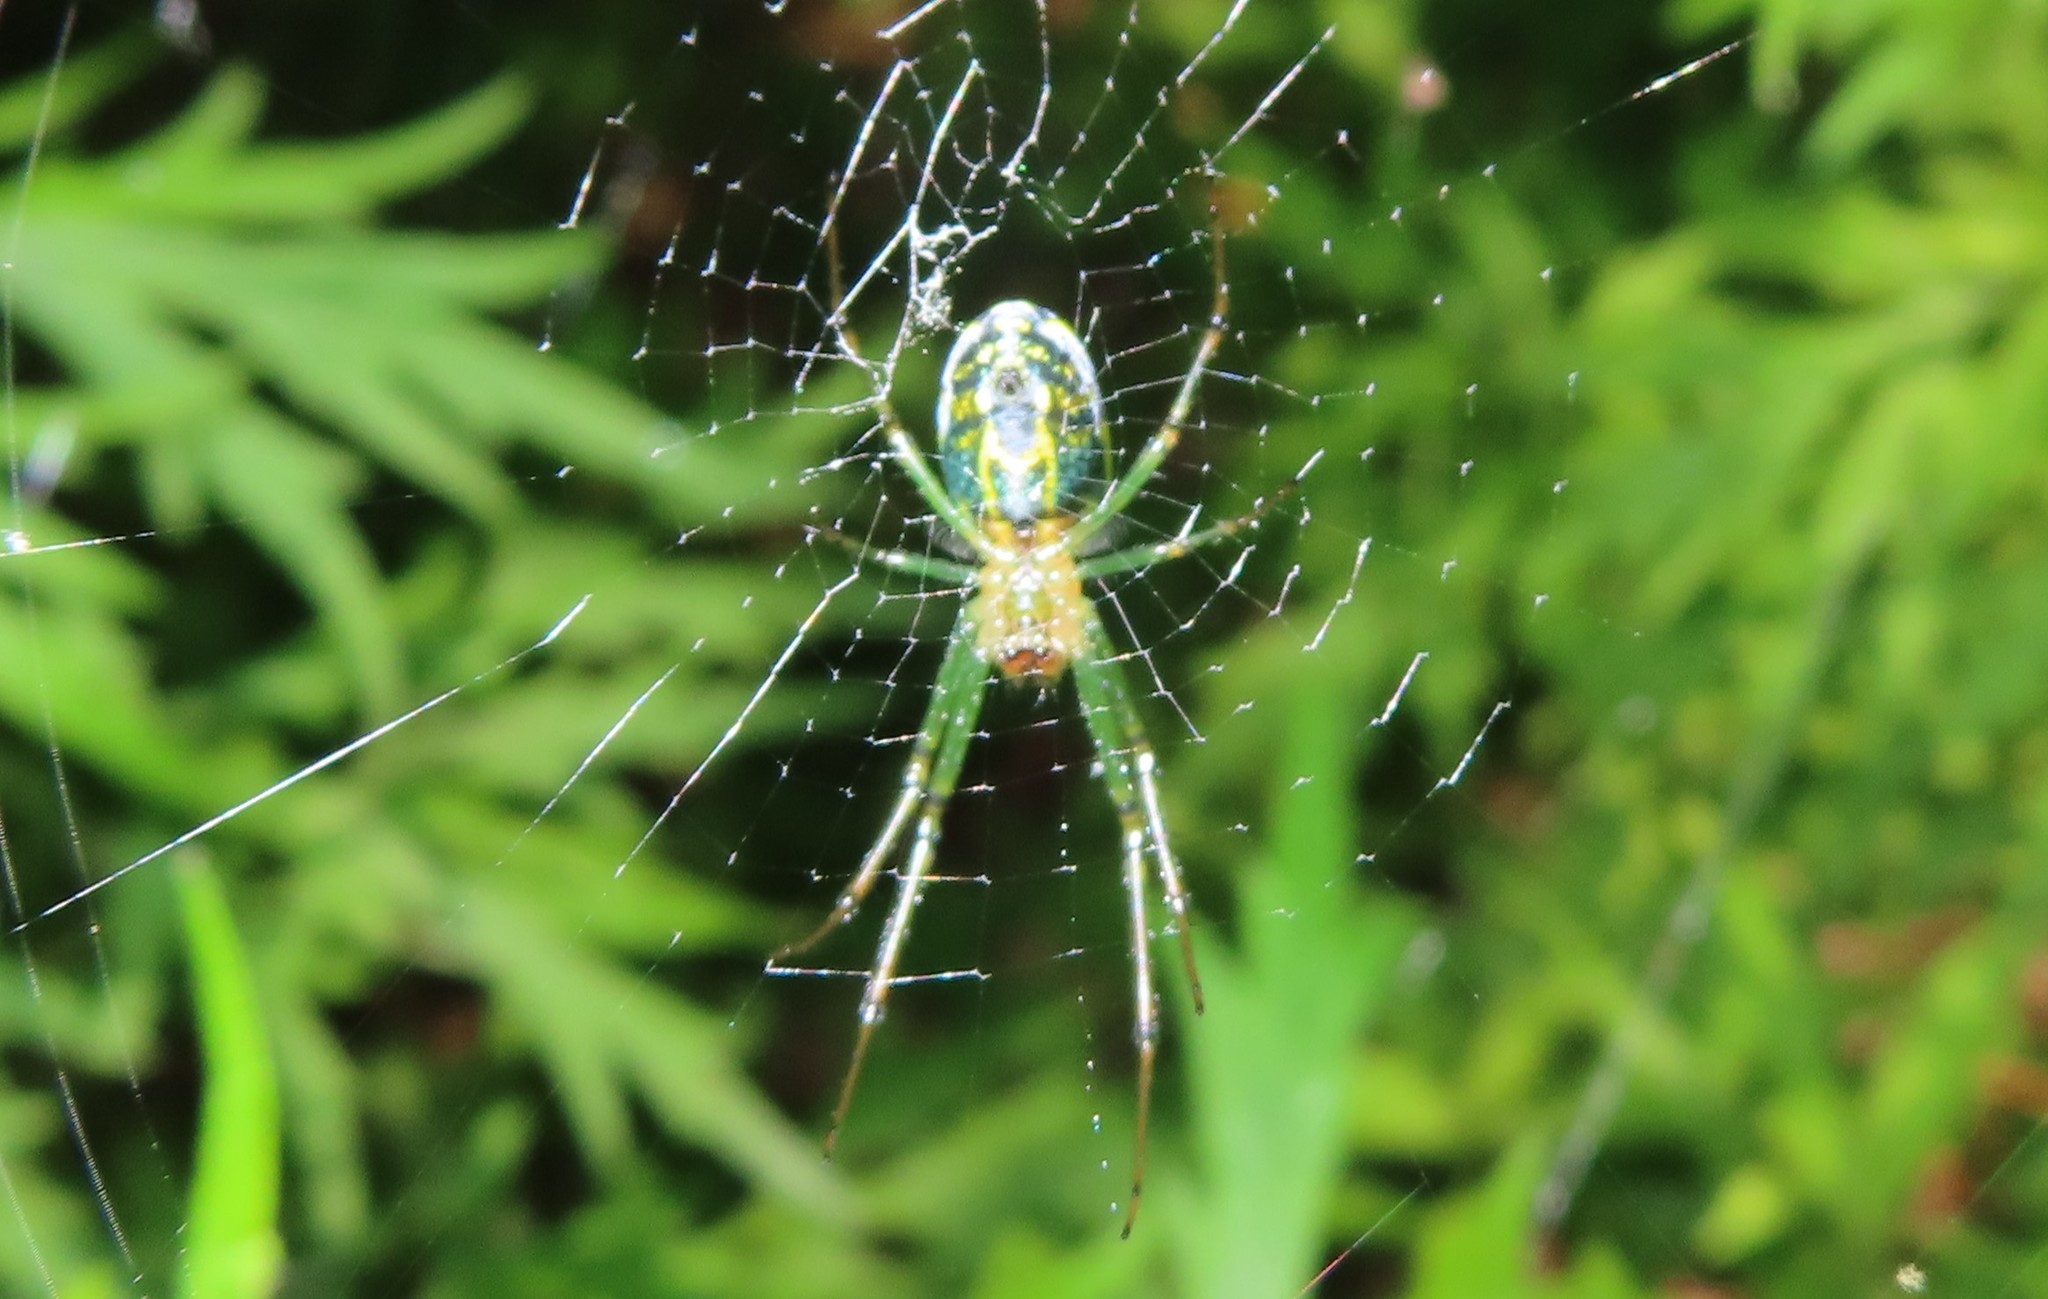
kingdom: Animalia
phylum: Arthropoda
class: Arachnida
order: Araneae
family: Tetragnathidae
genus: Leucauge
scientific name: Leucauge venusta
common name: Longjawed orb weavers
